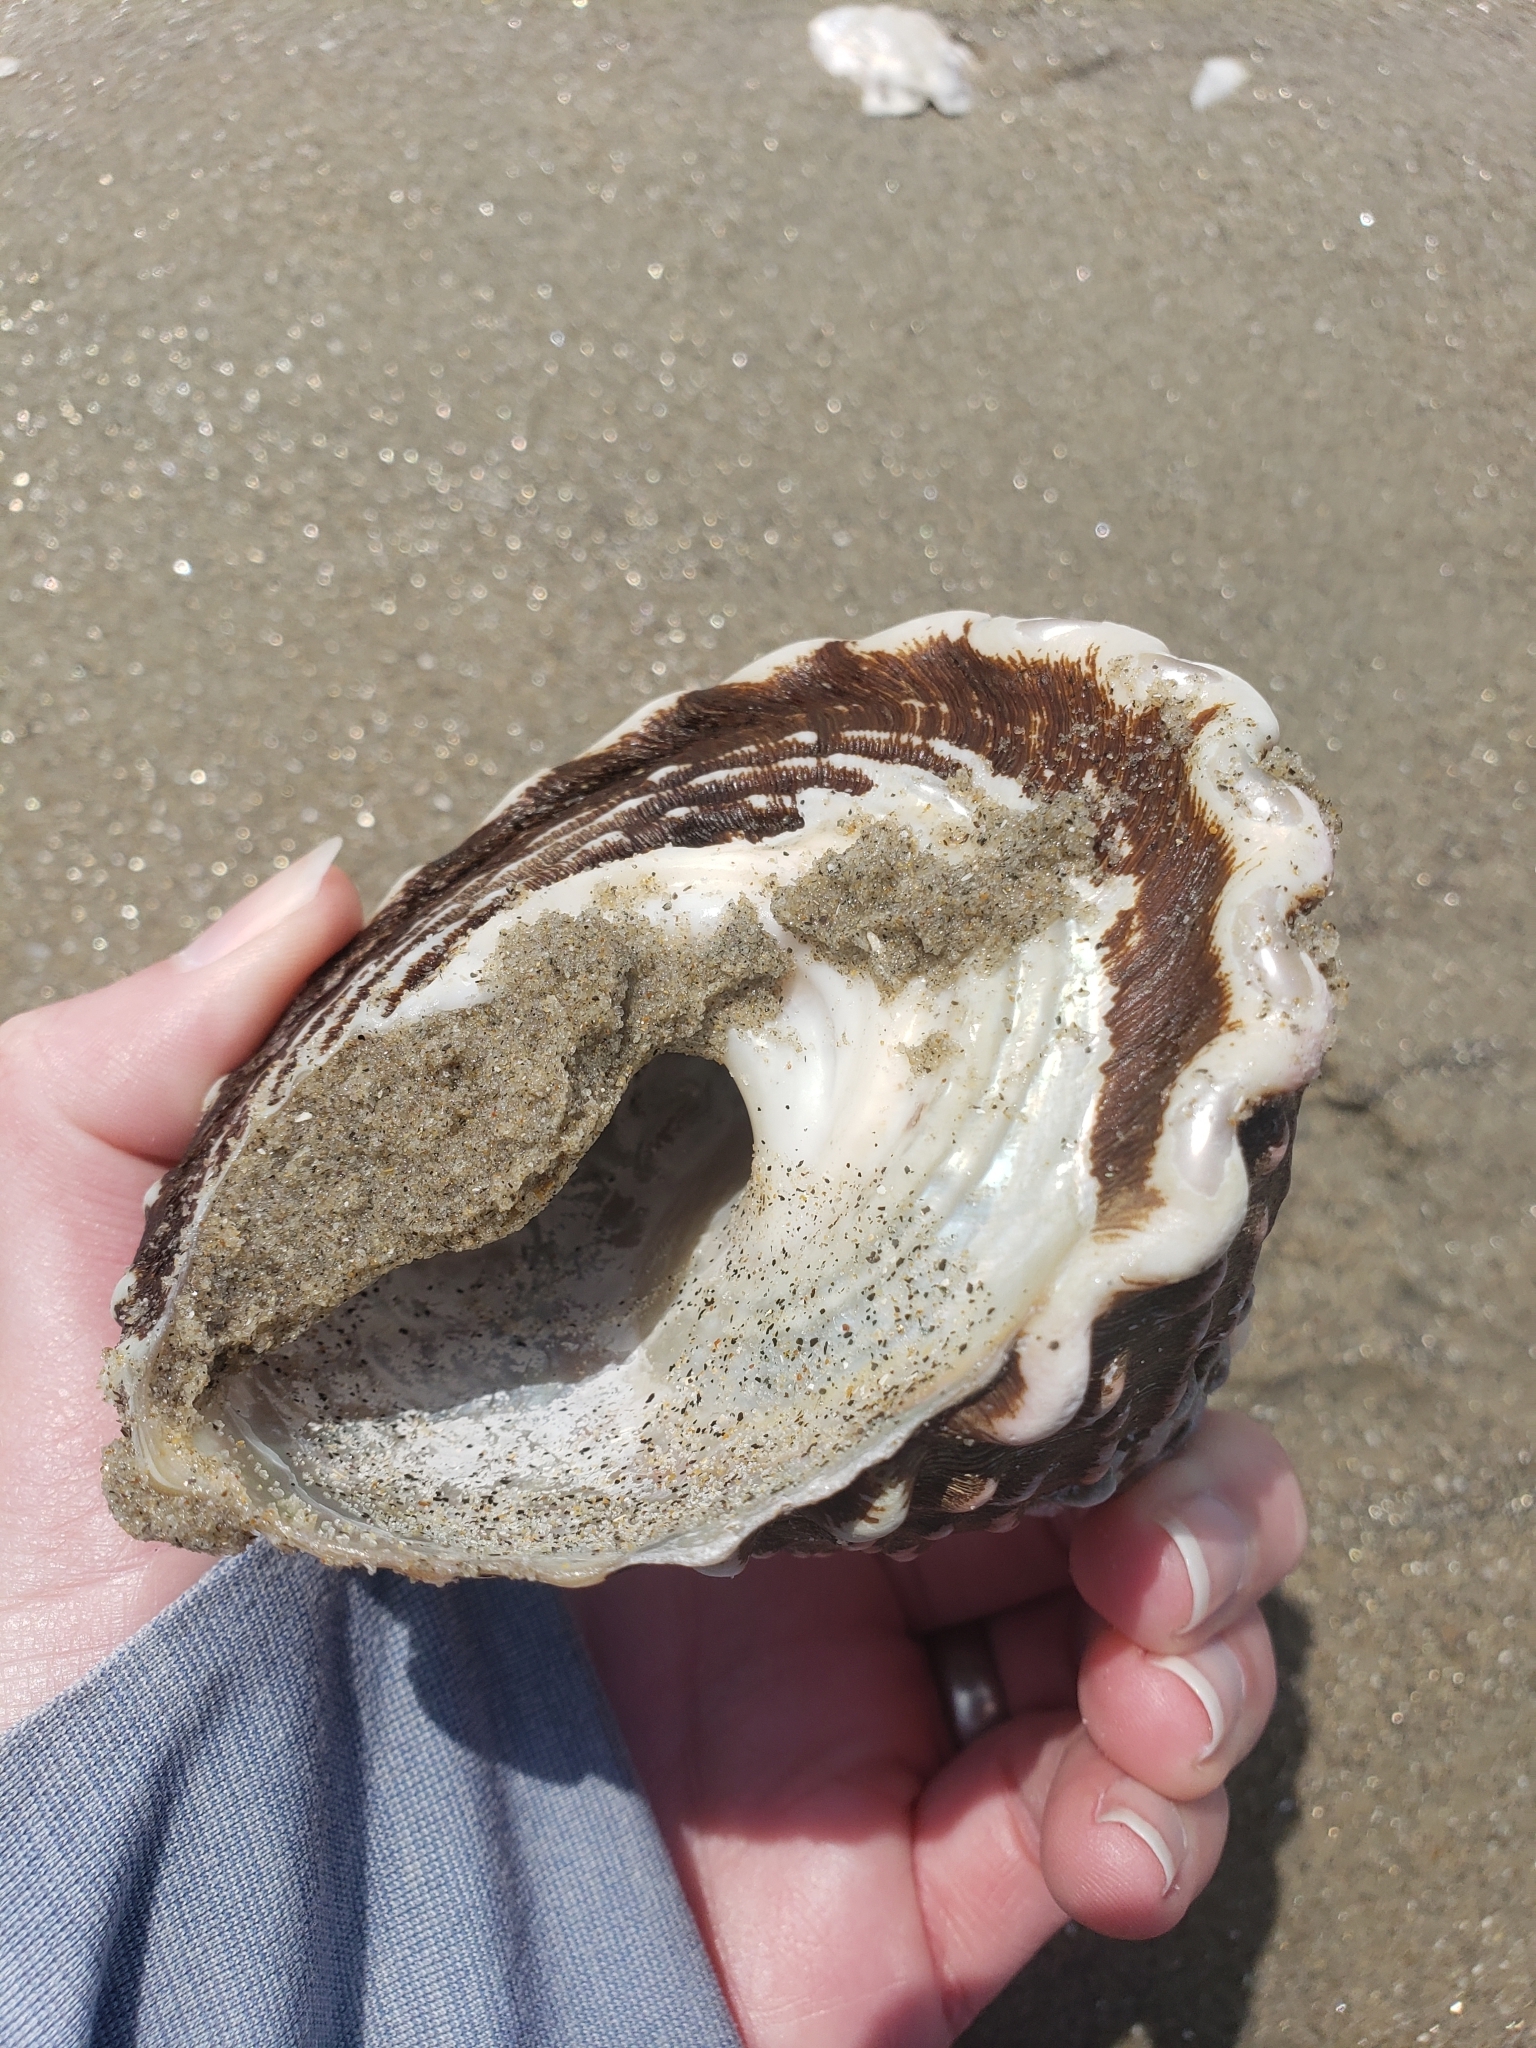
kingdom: Animalia
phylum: Mollusca
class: Gastropoda
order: Trochida
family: Turbinidae
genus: Megastraea
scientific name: Megastraea undosa
